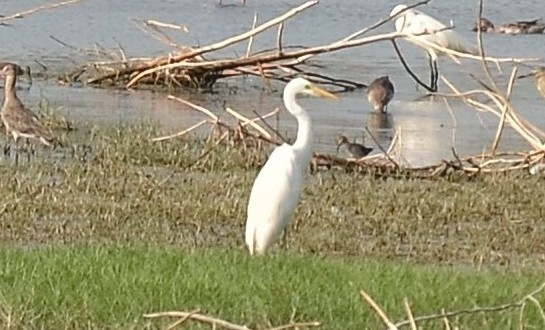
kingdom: Animalia
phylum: Chordata
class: Aves
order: Pelecaniformes
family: Ardeidae
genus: Egretta
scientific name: Egretta intermedia
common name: Intermediate egret
